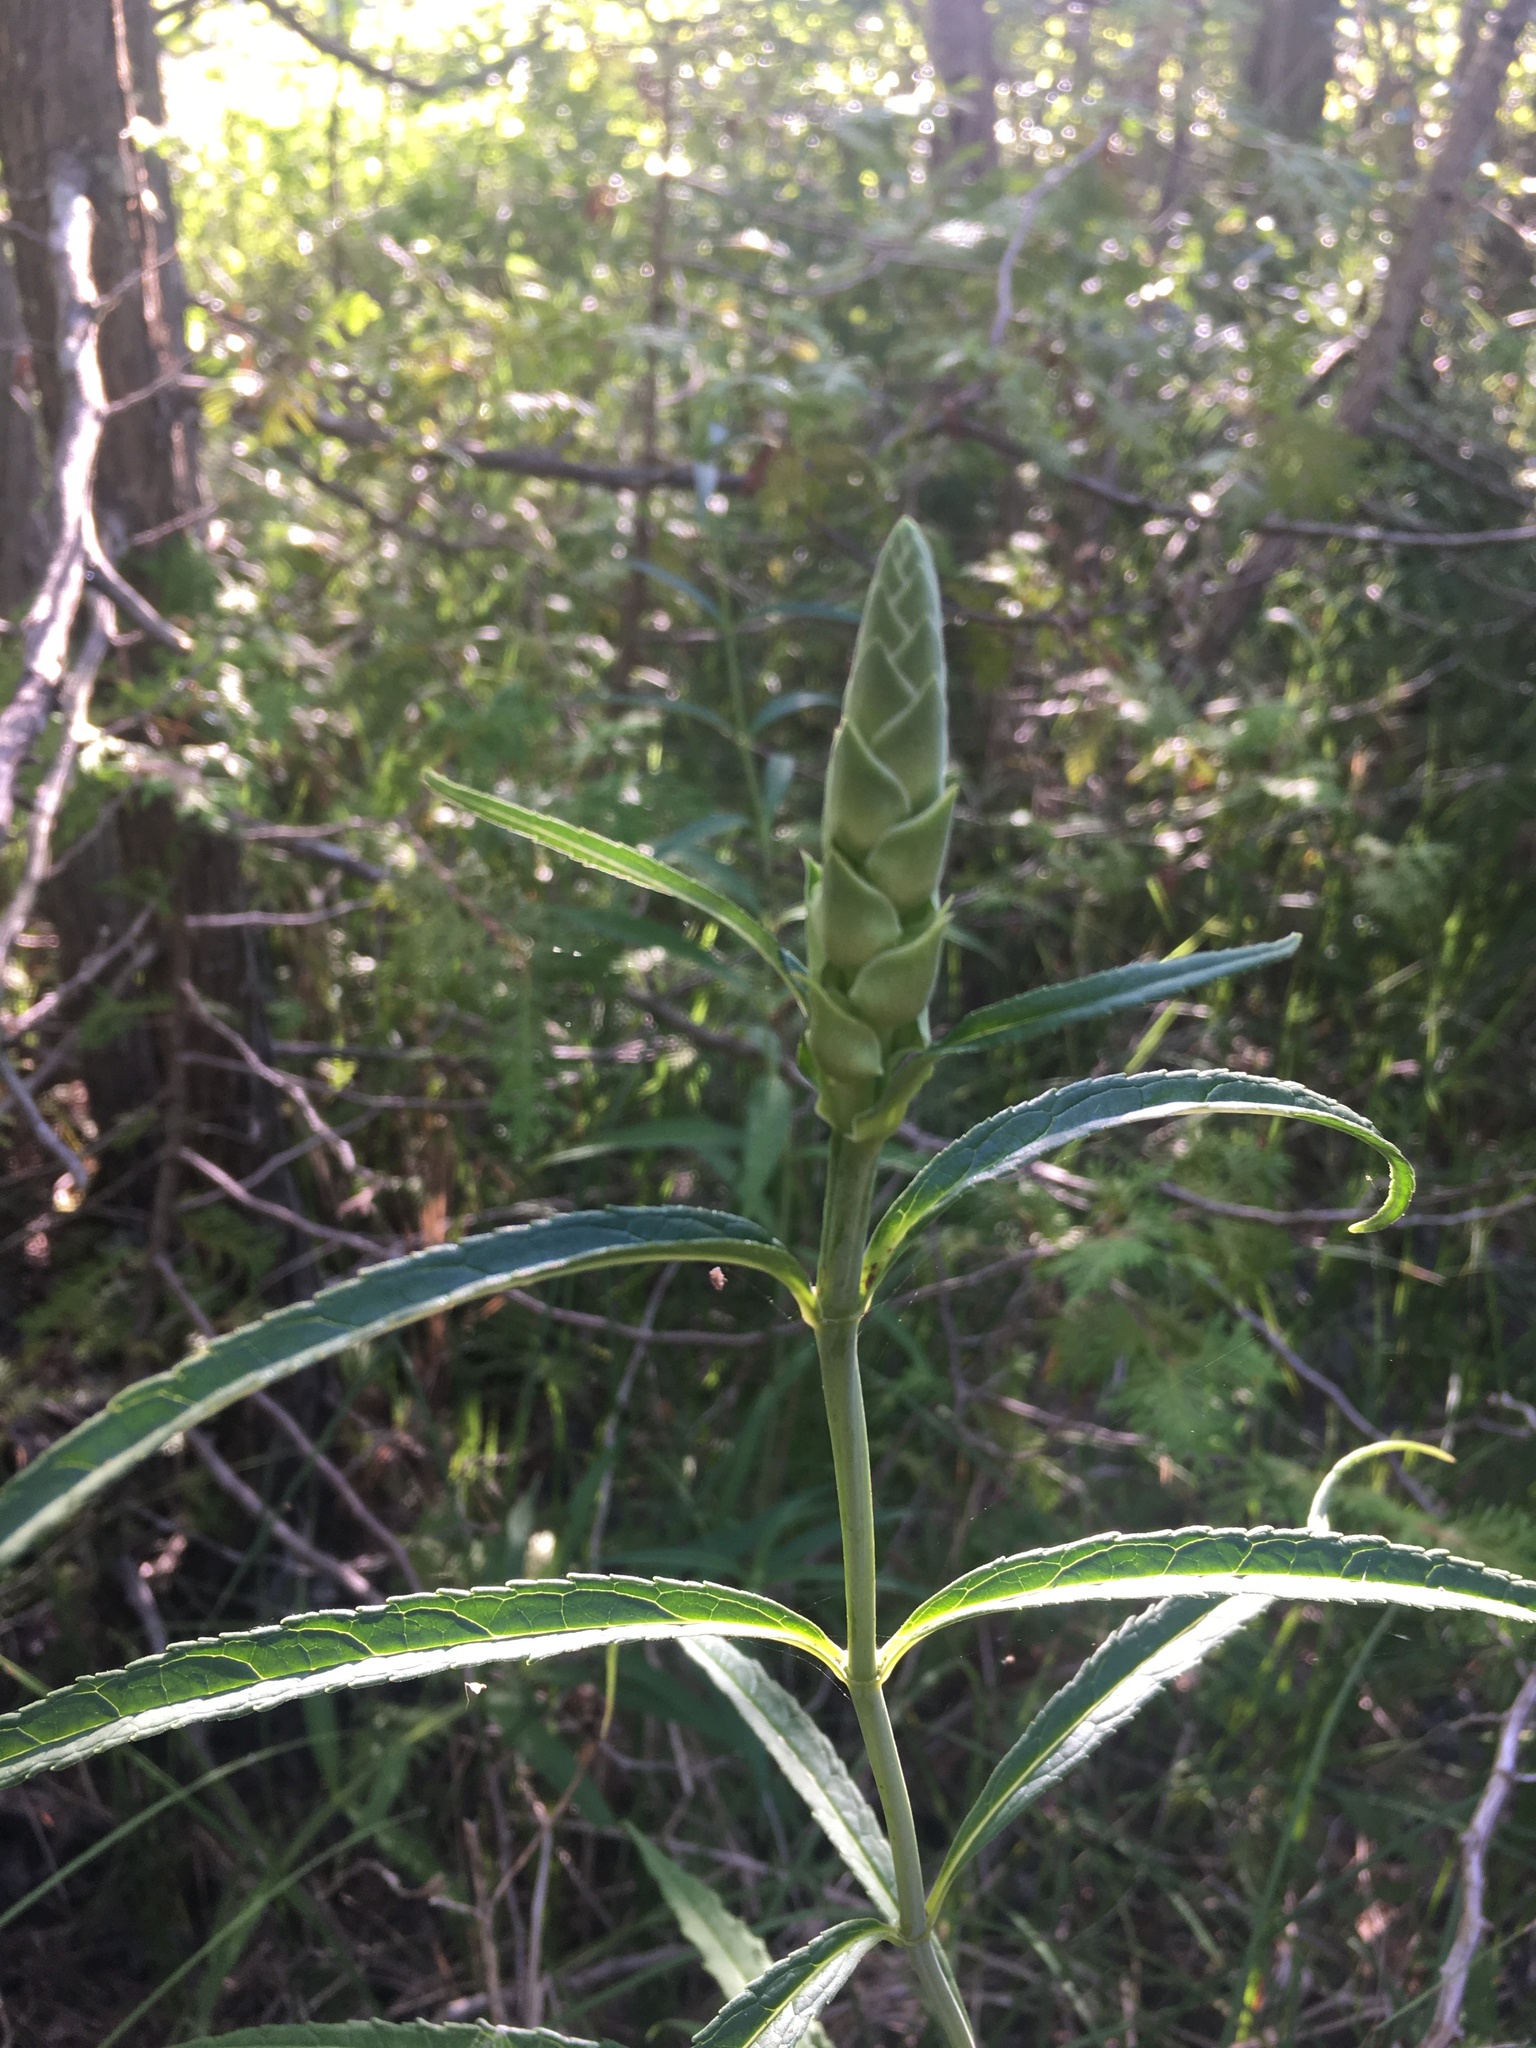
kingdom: Plantae
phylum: Tracheophyta
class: Magnoliopsida
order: Lamiales
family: Plantaginaceae
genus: Chelone
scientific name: Chelone glabra
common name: Snakehead
